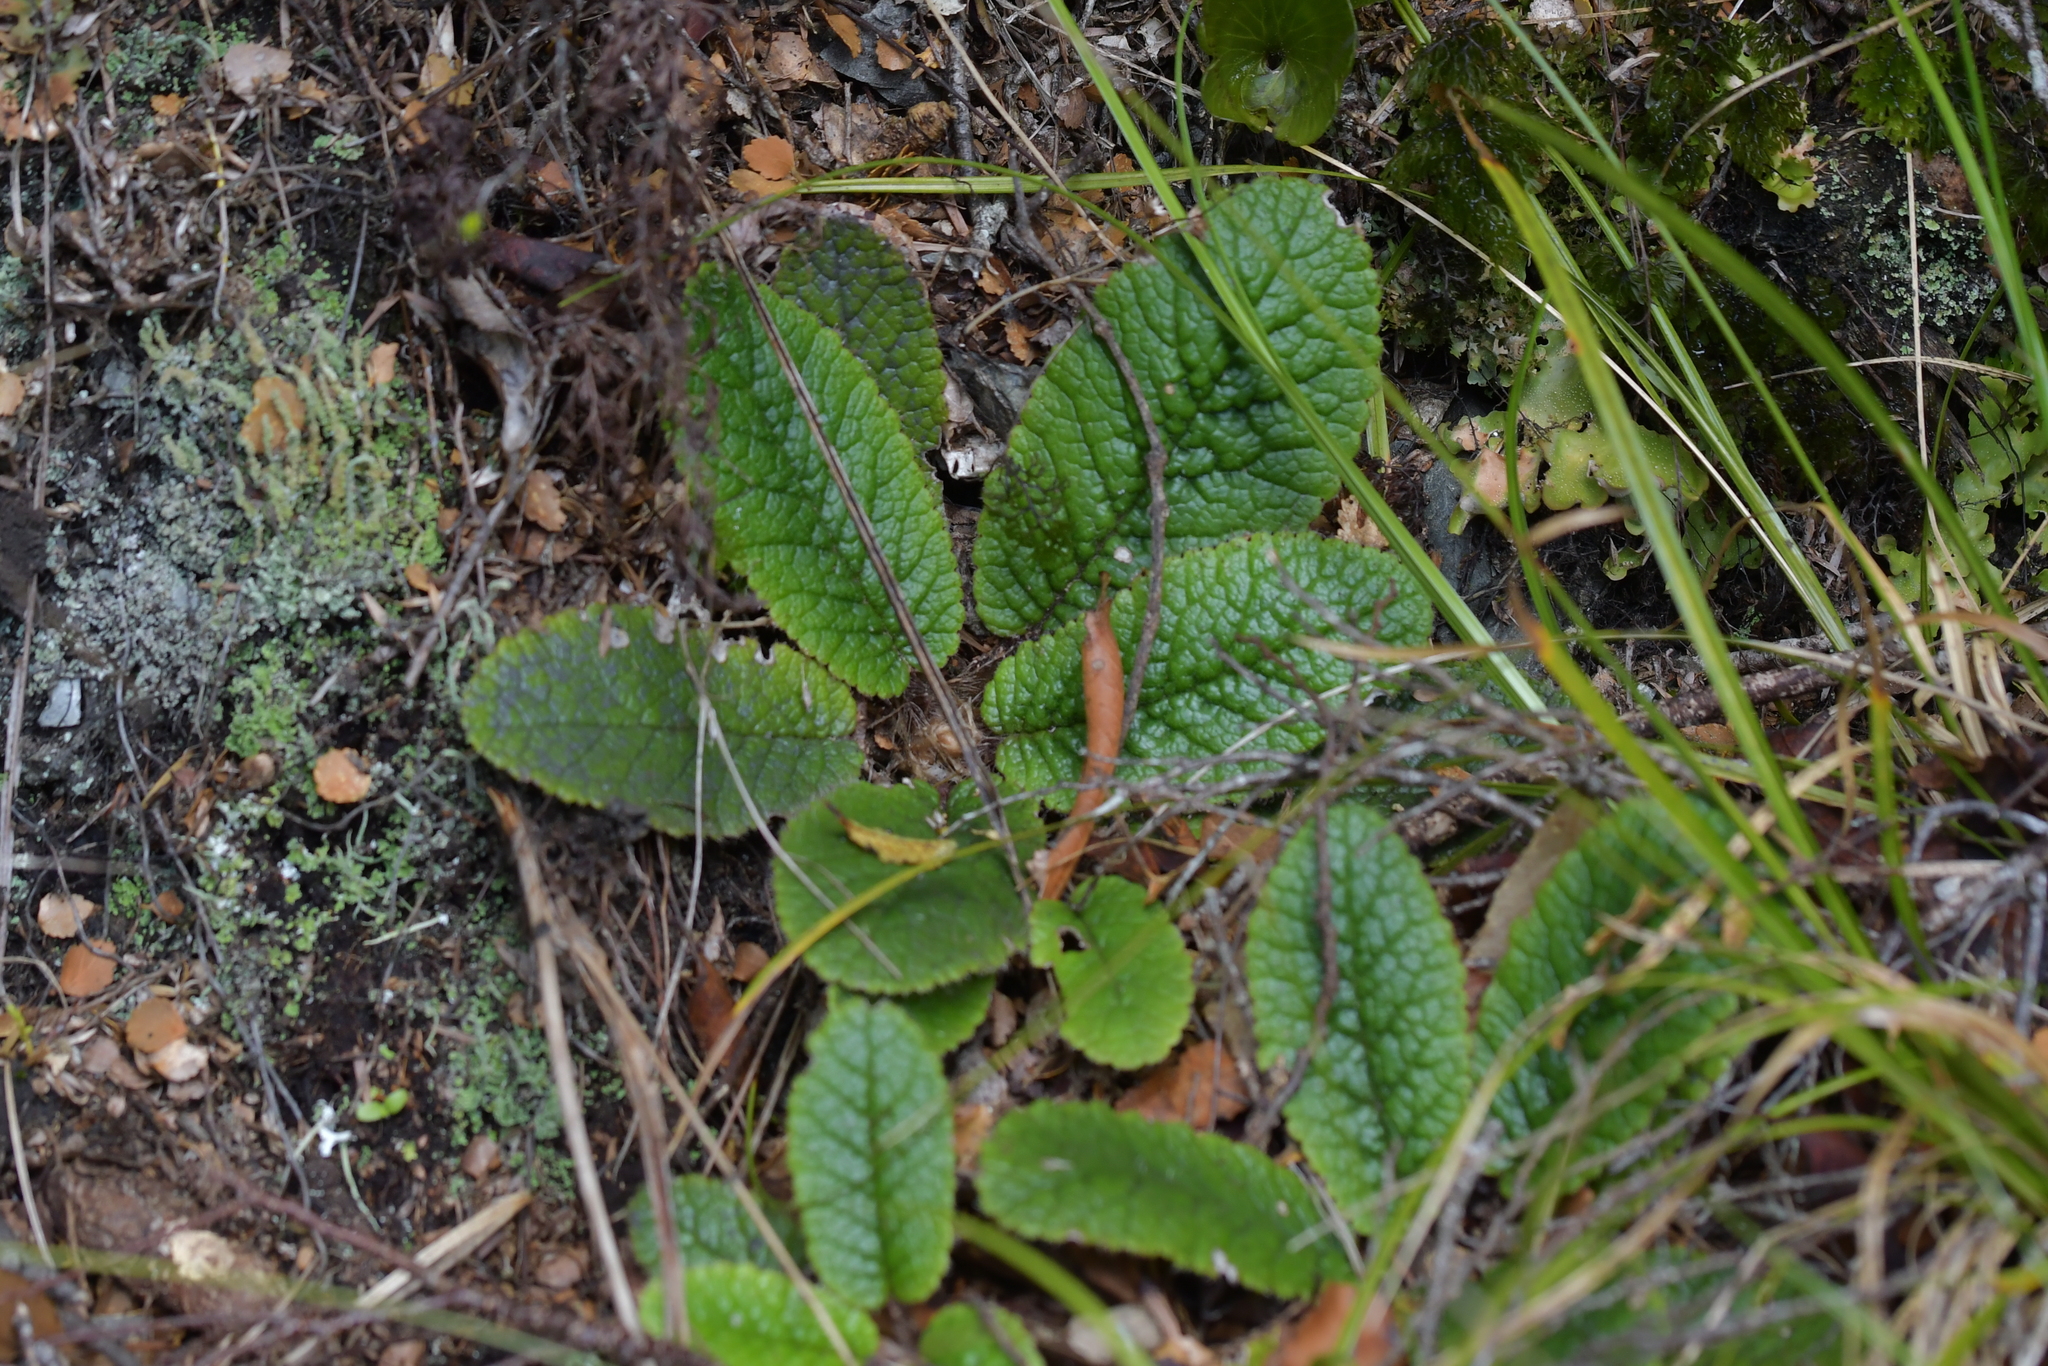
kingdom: Plantae
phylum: Tracheophyta
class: Magnoliopsida
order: Asterales
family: Asteraceae
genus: Brachyglottis
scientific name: Brachyglottis lagopus
